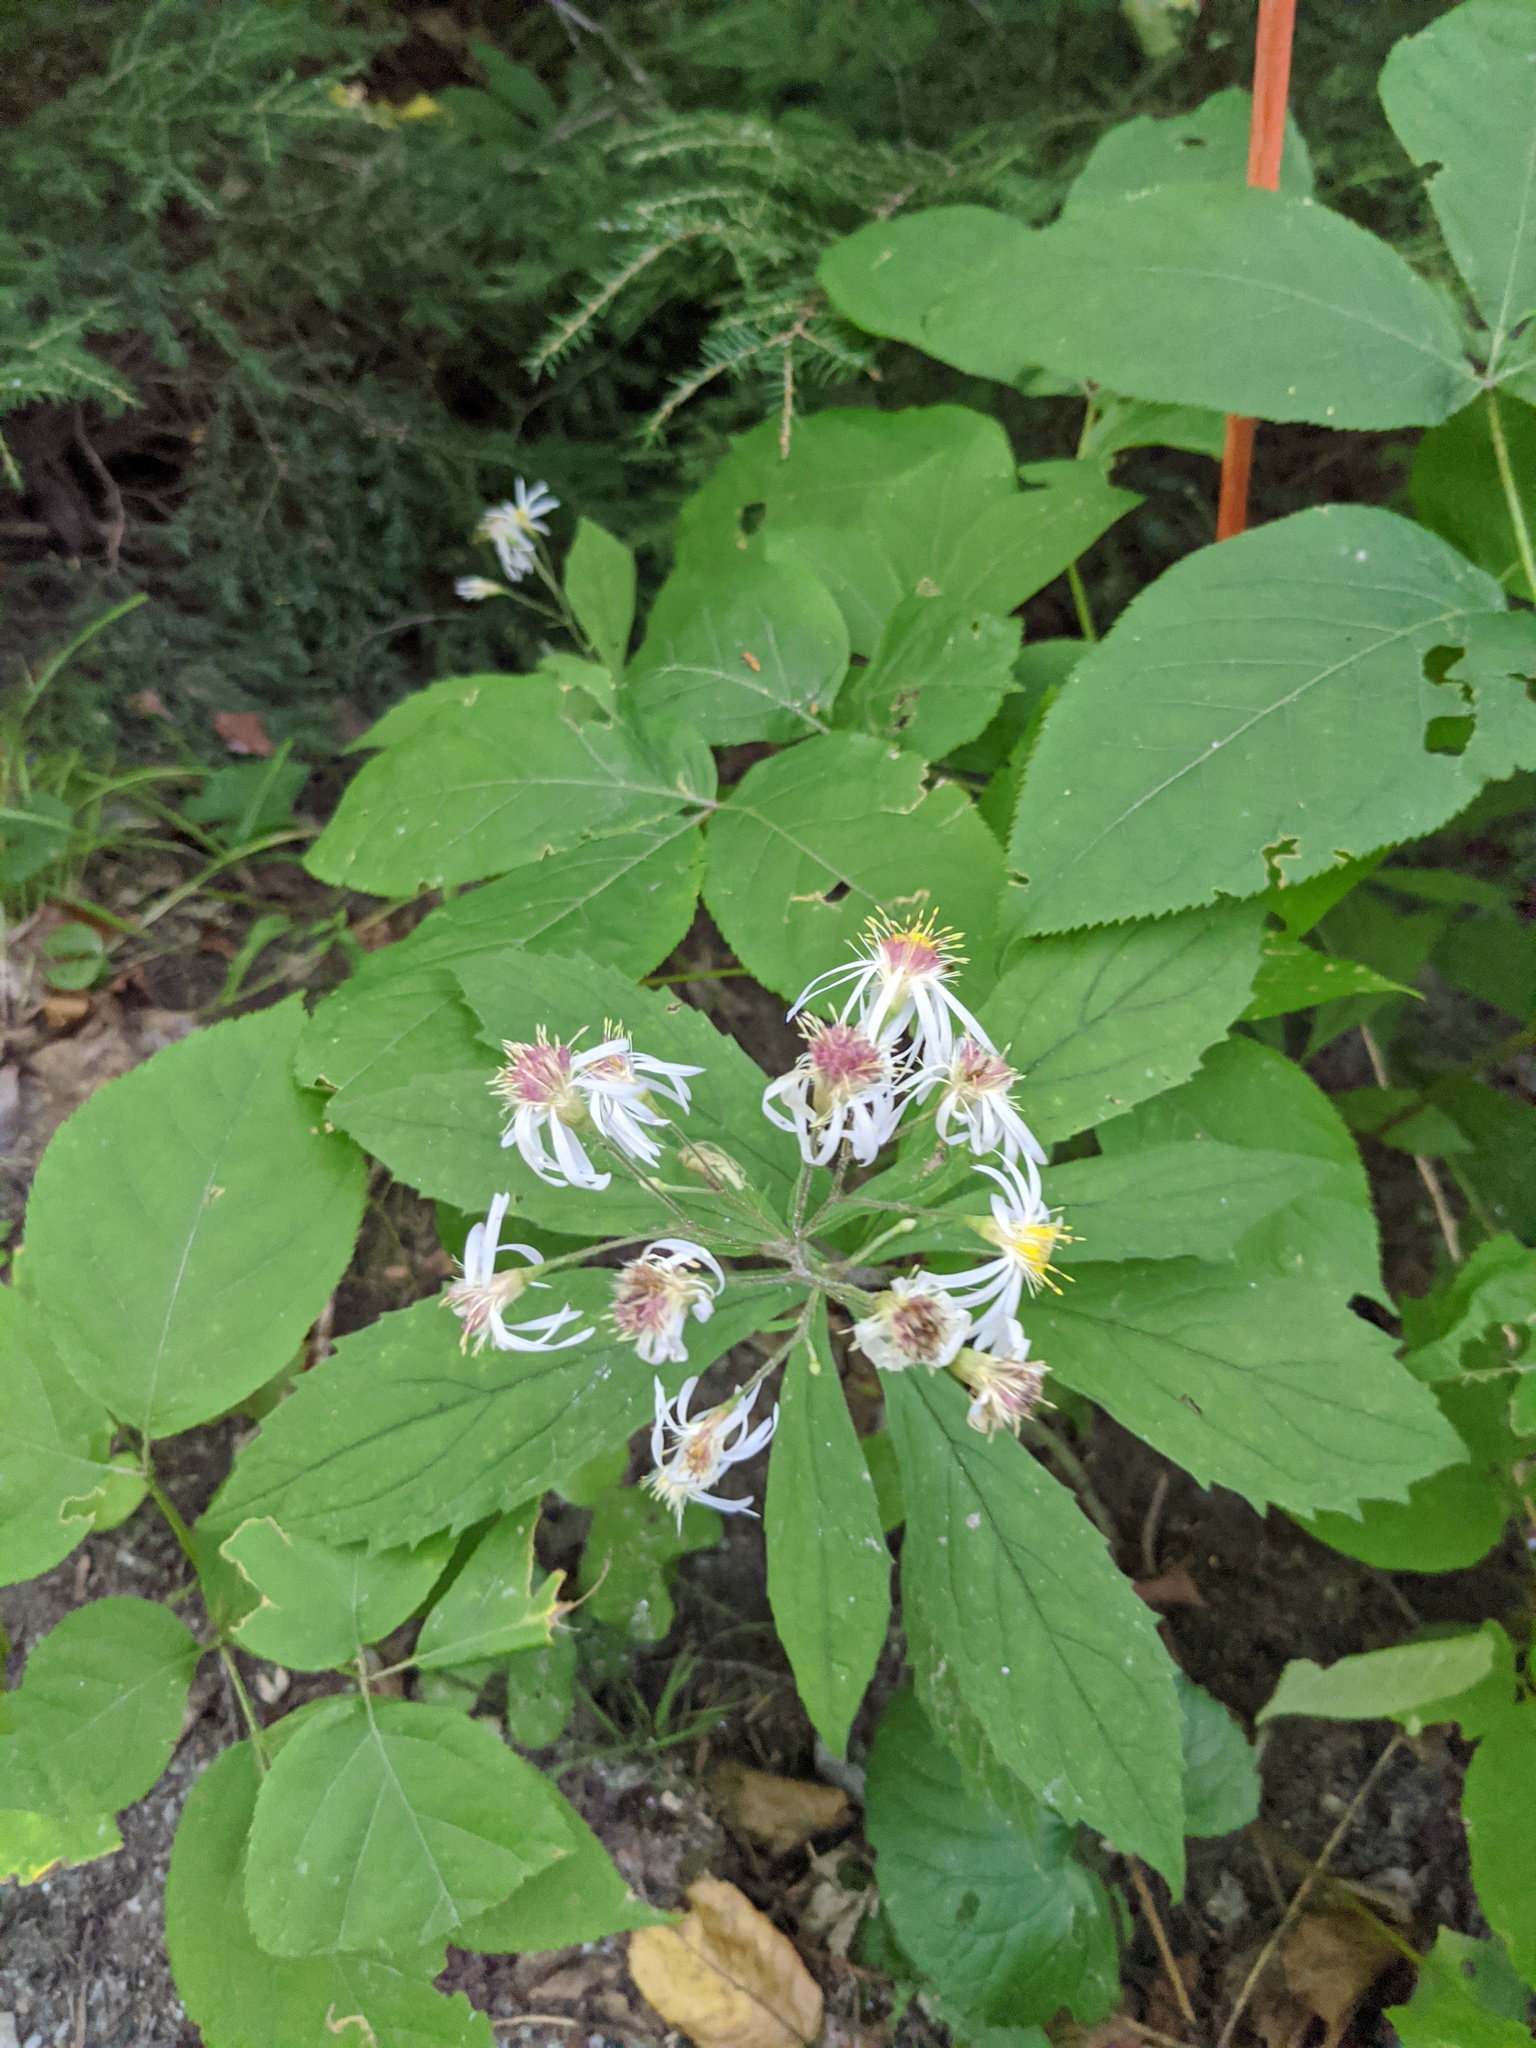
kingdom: Plantae
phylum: Tracheophyta
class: Magnoliopsida
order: Asterales
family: Asteraceae
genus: Oclemena
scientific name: Oclemena acuminata
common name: Mountain aster
